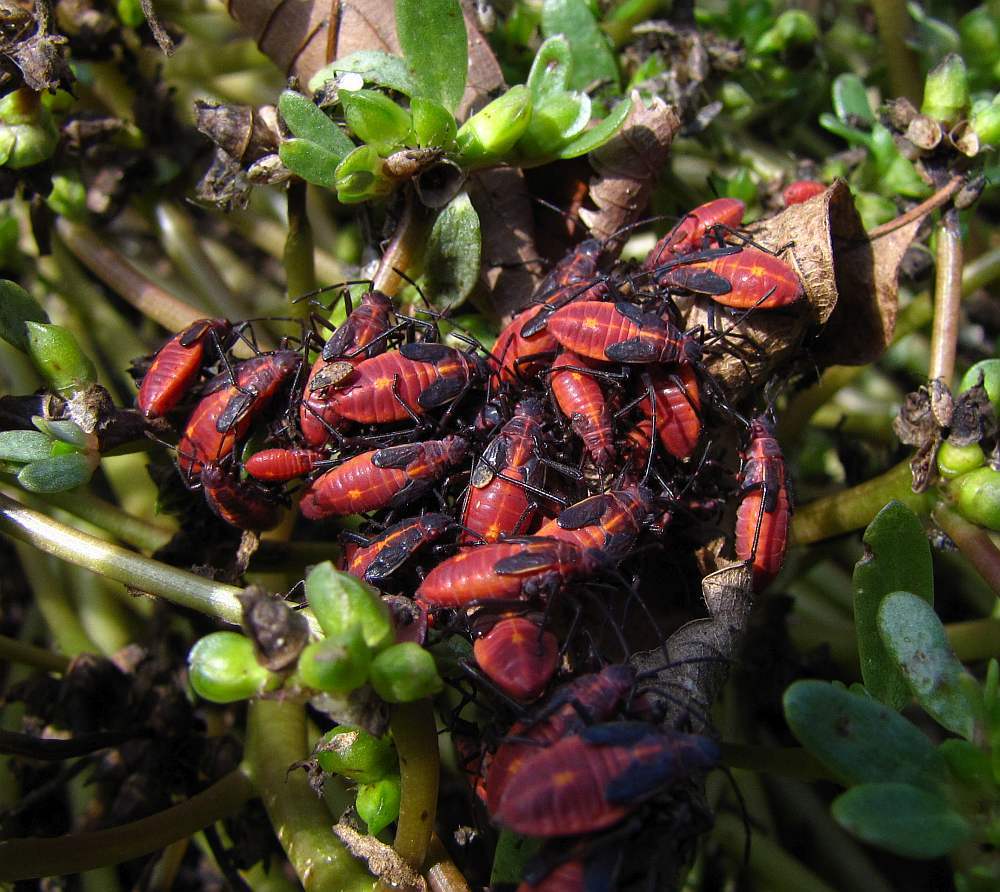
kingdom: Animalia
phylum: Arthropoda
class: Insecta
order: Hemiptera
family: Rhopalidae
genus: Boisea
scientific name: Boisea trivittata
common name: Boxelder bug
